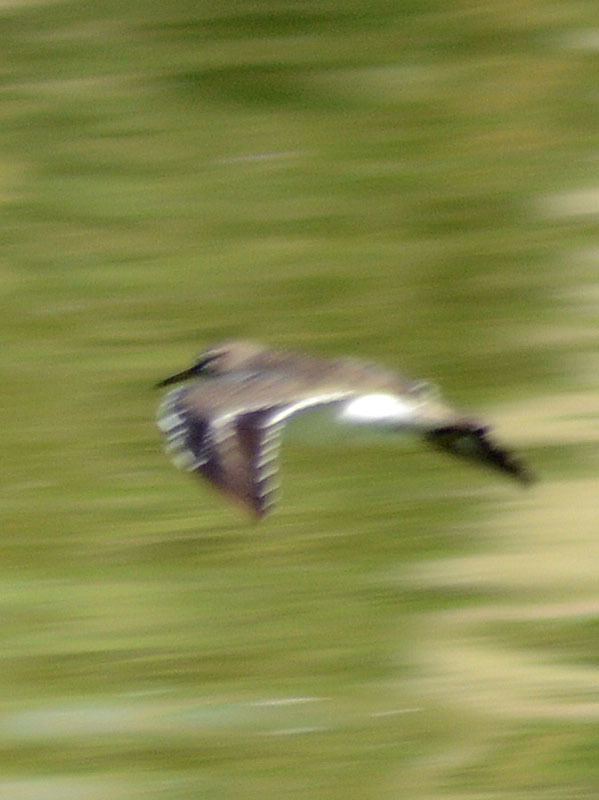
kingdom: Animalia
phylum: Chordata
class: Aves
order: Charadriiformes
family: Scolopacidae
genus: Actitis
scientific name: Actitis macularius
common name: Spotted sandpiper
